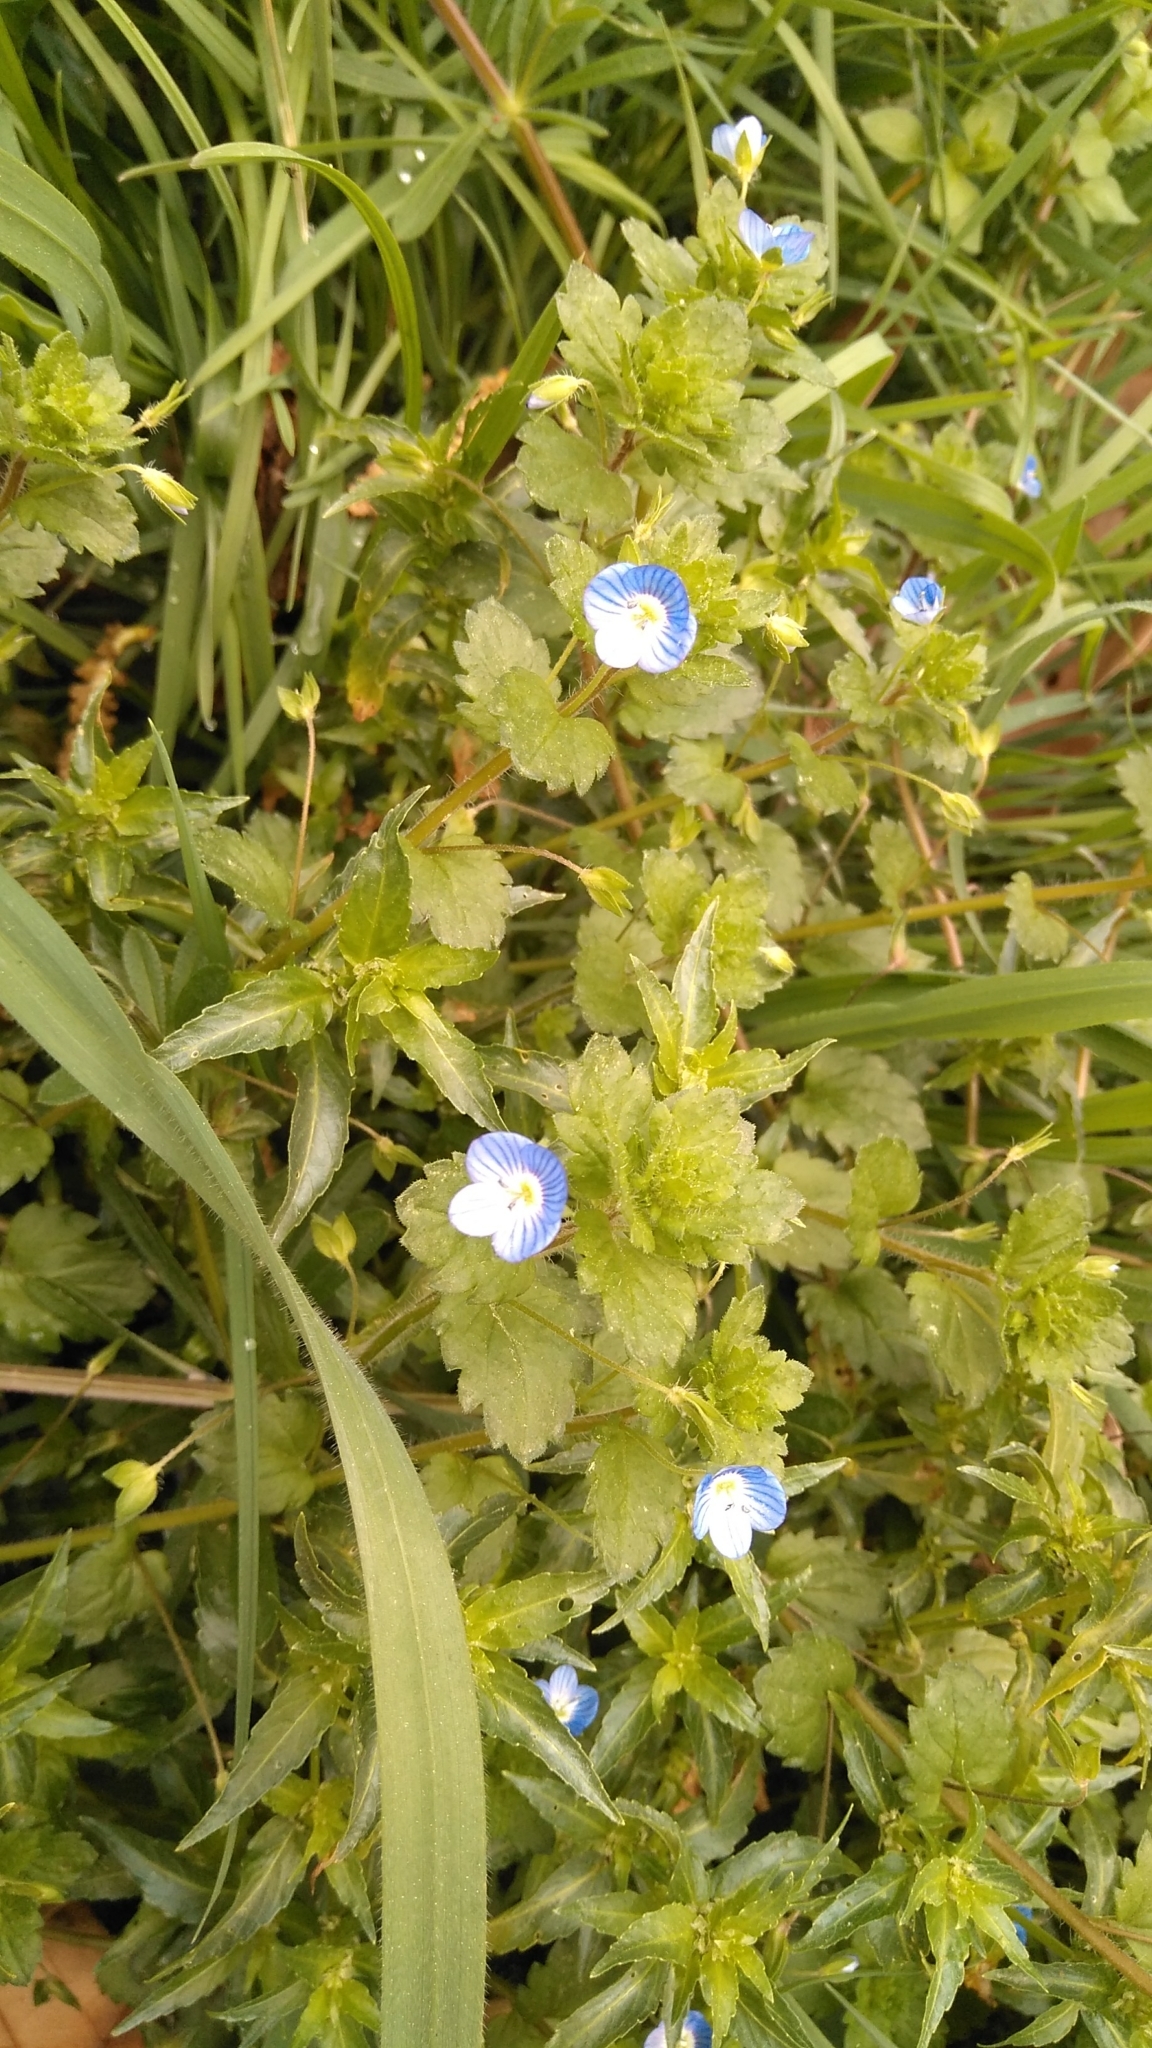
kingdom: Plantae
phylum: Tracheophyta
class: Magnoliopsida
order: Lamiales
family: Plantaginaceae
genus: Veronica
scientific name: Veronica persica
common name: Common field-speedwell
